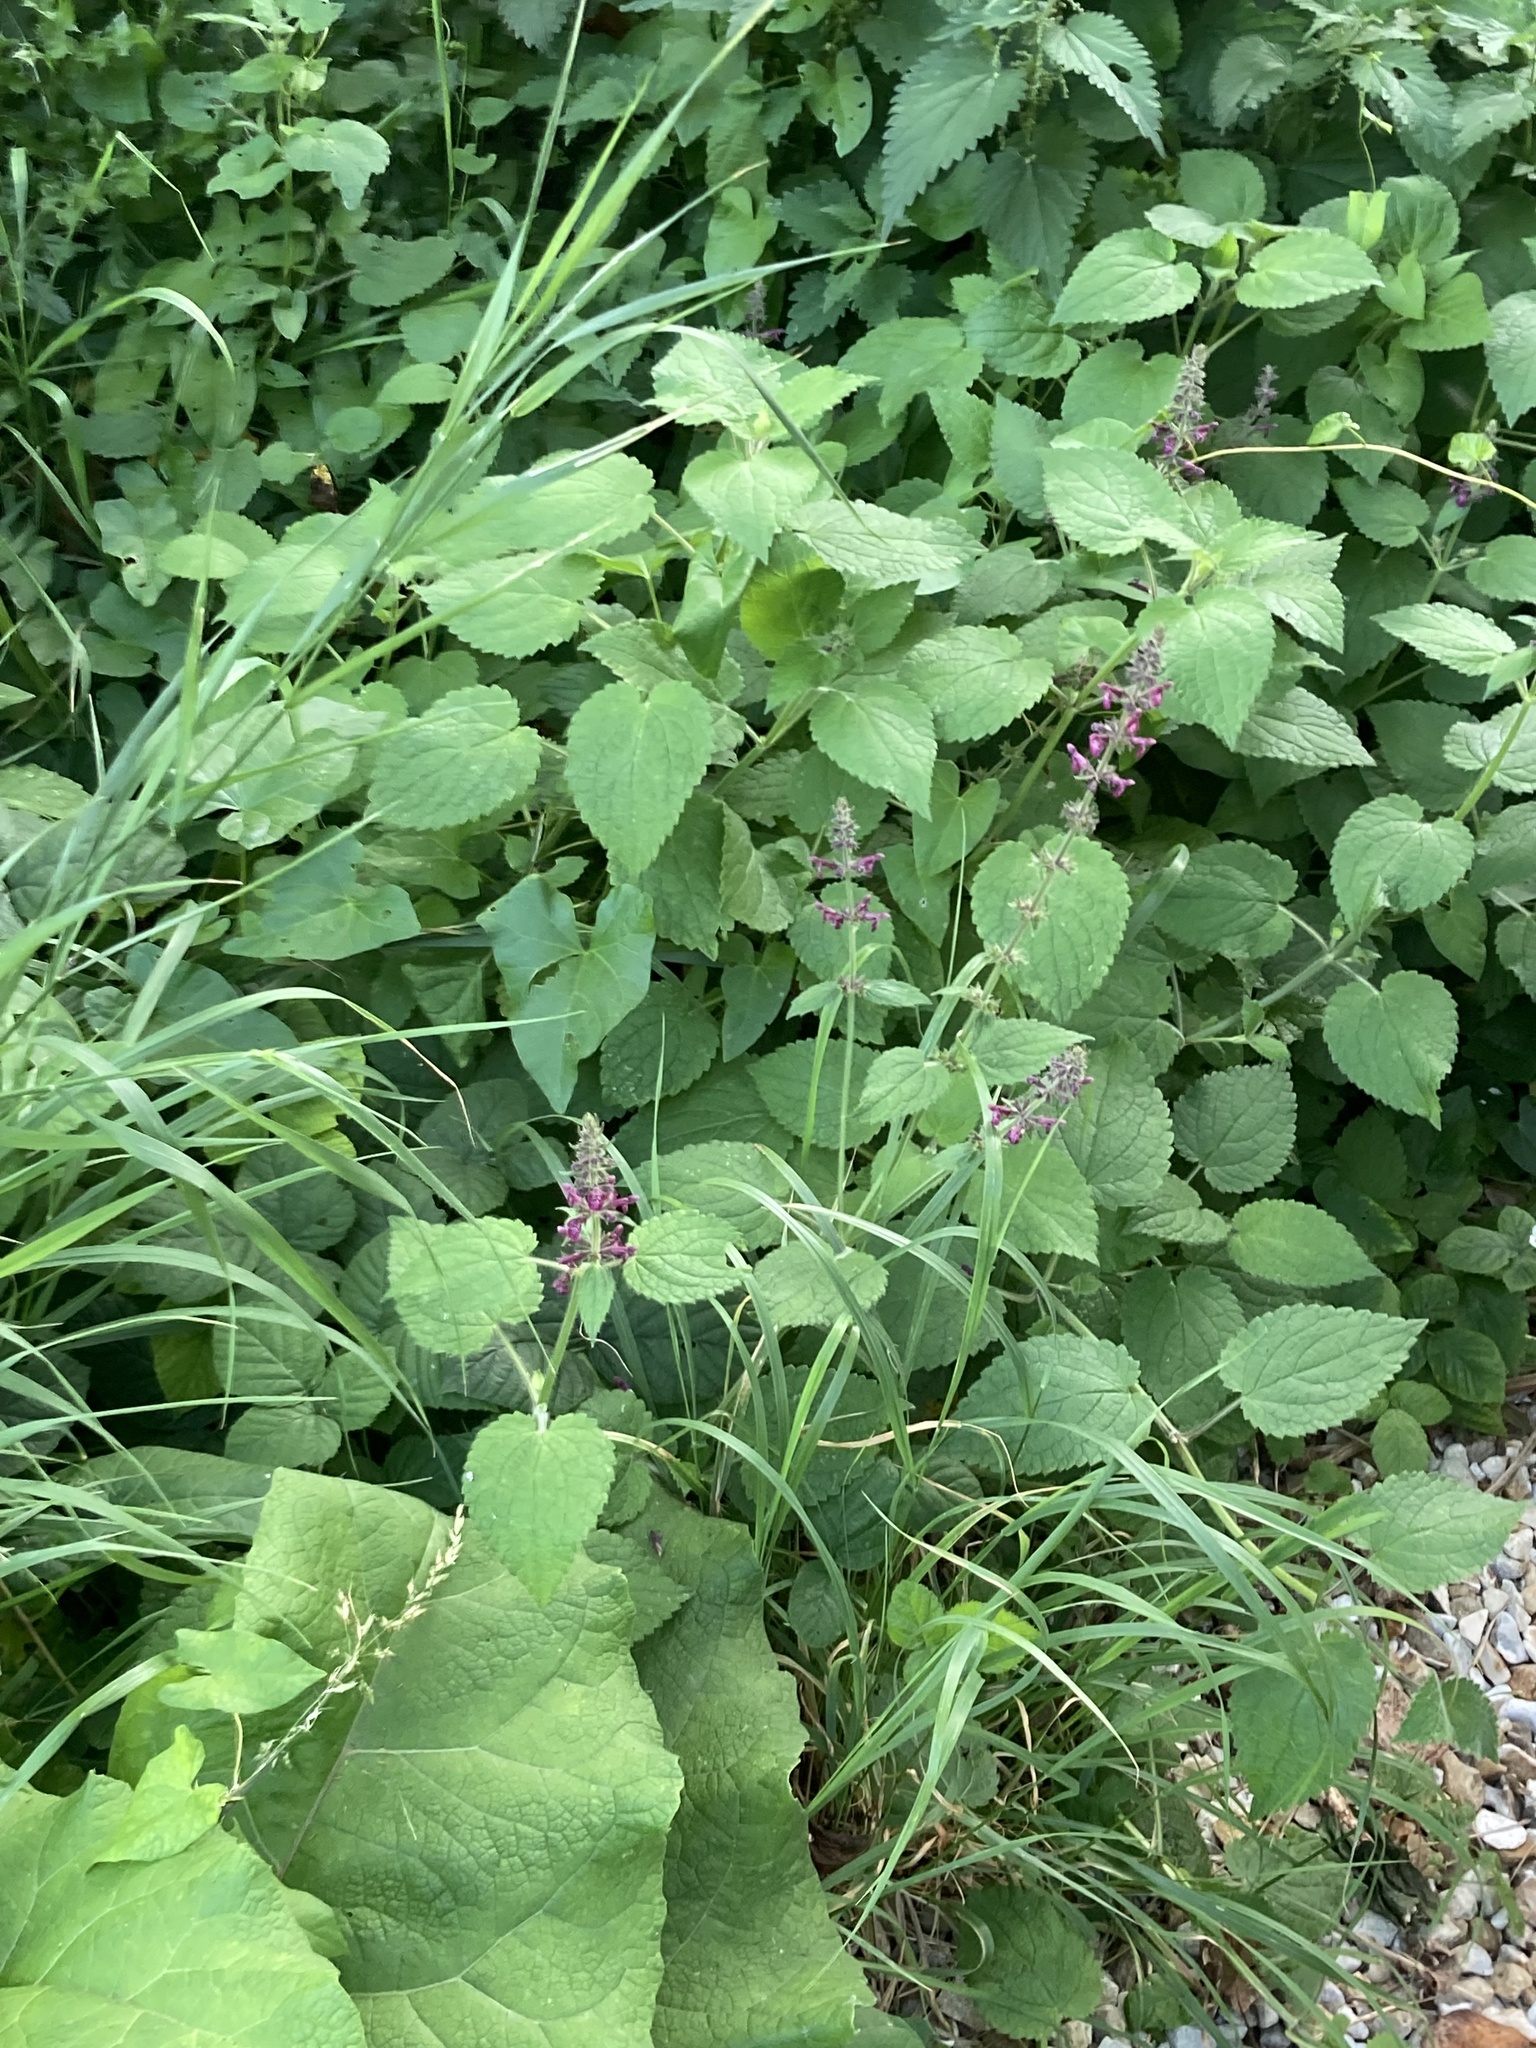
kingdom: Plantae
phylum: Tracheophyta
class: Magnoliopsida
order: Lamiales
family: Lamiaceae
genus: Stachys
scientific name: Stachys sylvatica
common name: Hedge woundwort
